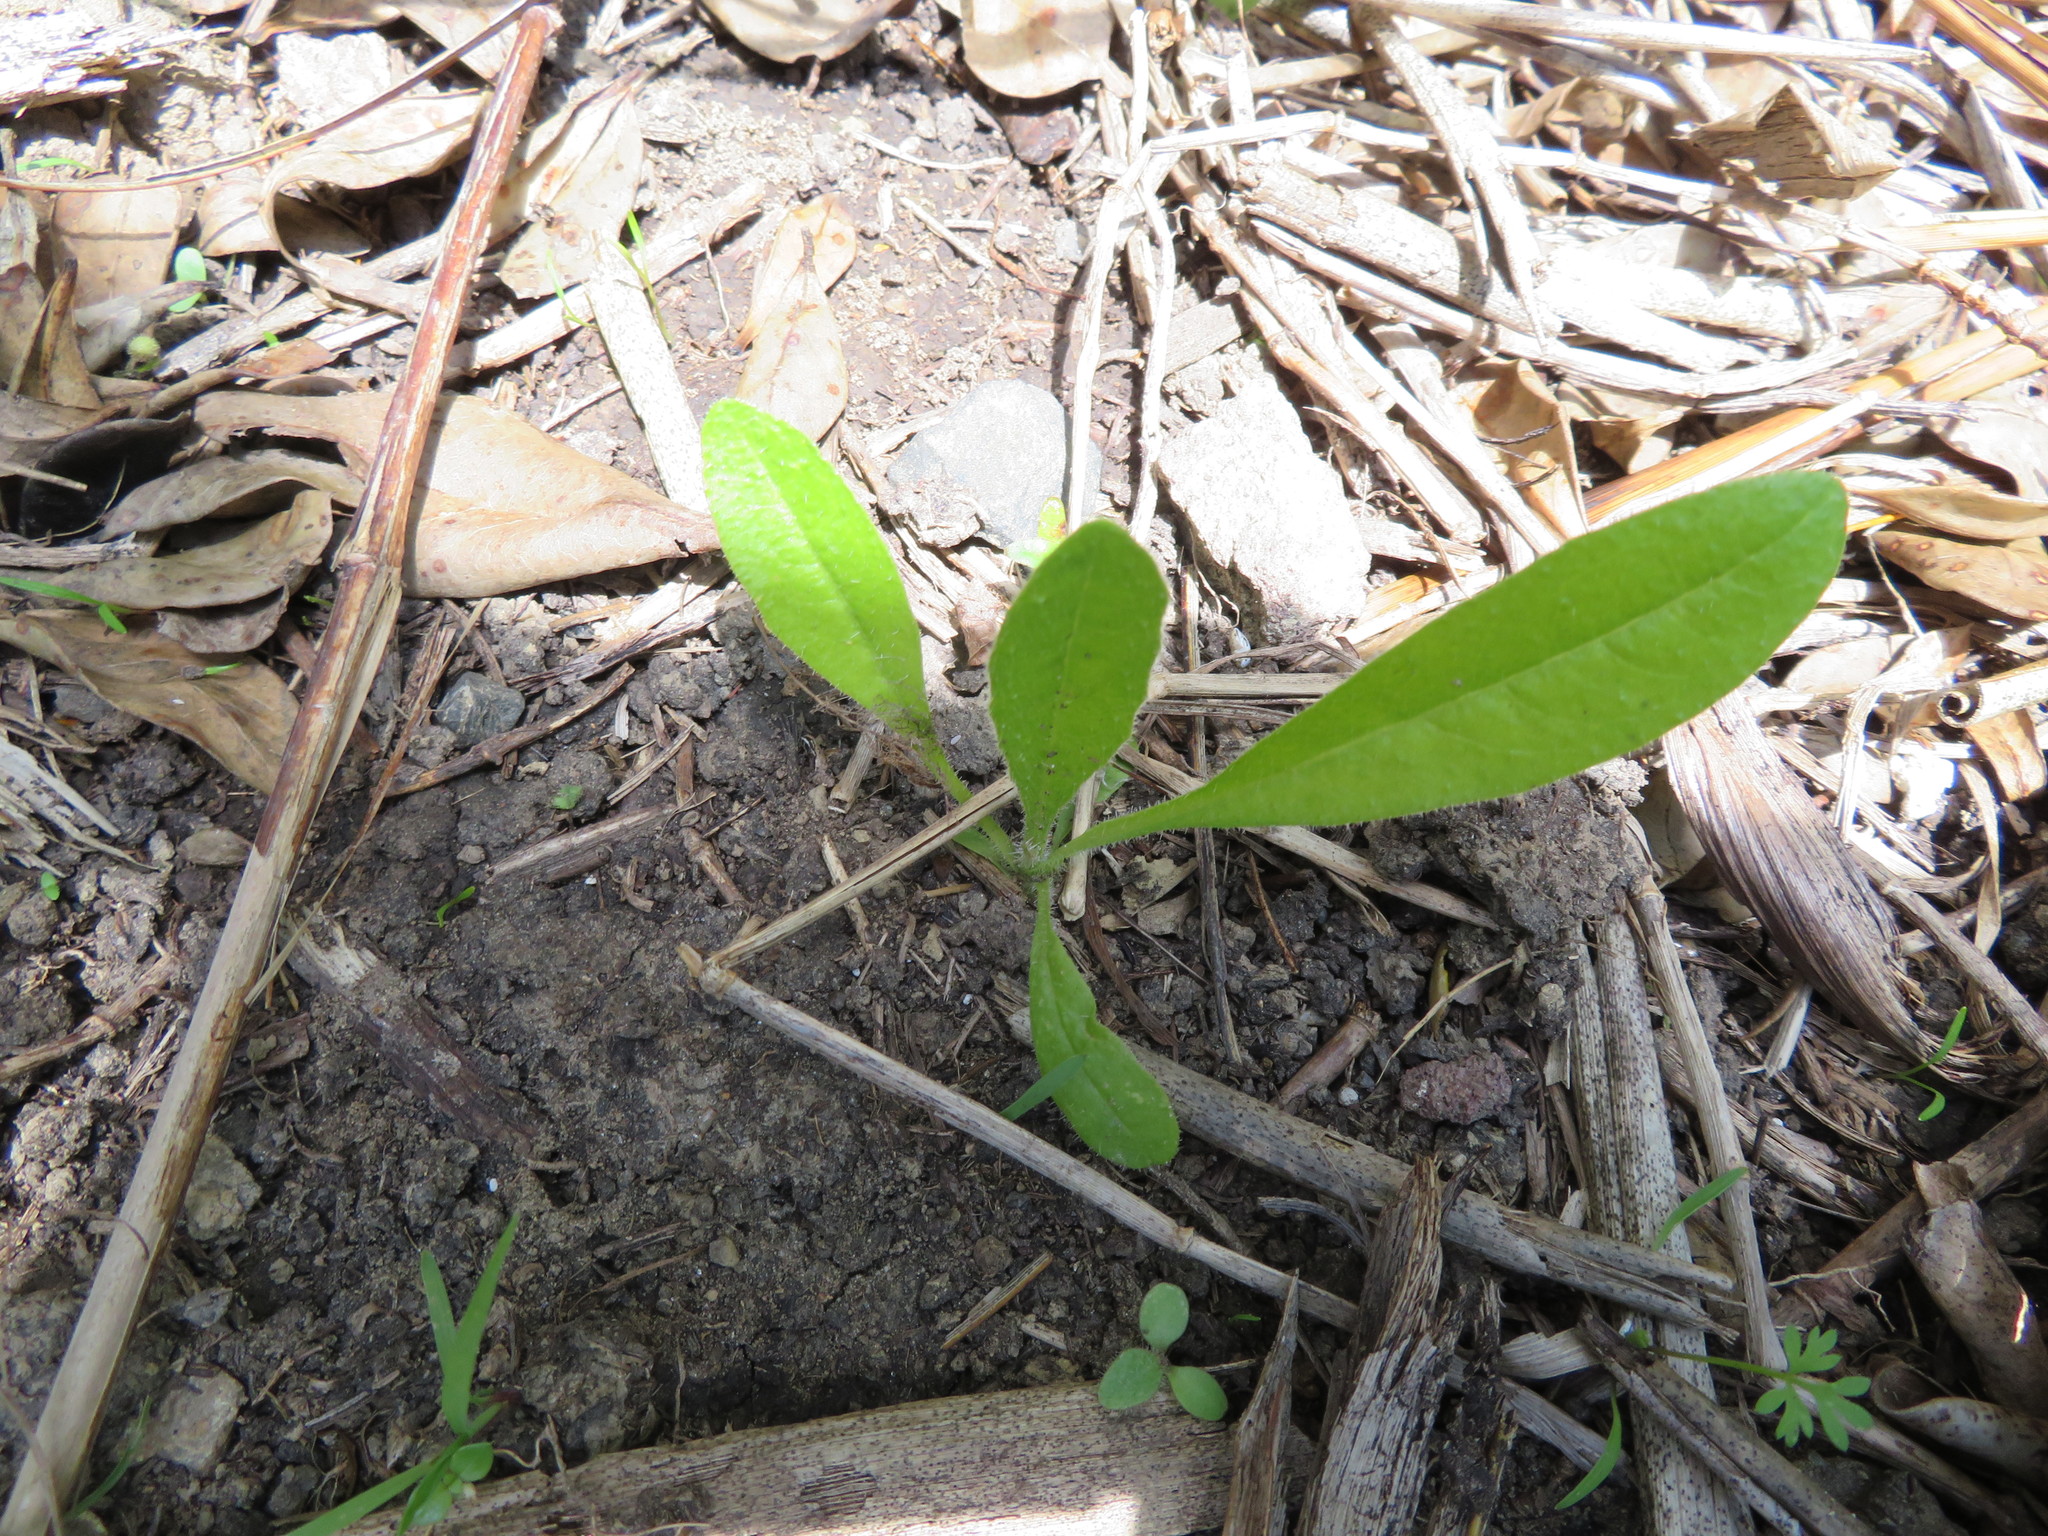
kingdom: Plantae
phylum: Tracheophyta
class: Magnoliopsida
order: Asterales
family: Asteraceae
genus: Helminthotheca
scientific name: Helminthotheca echioides
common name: Ox-tongue
